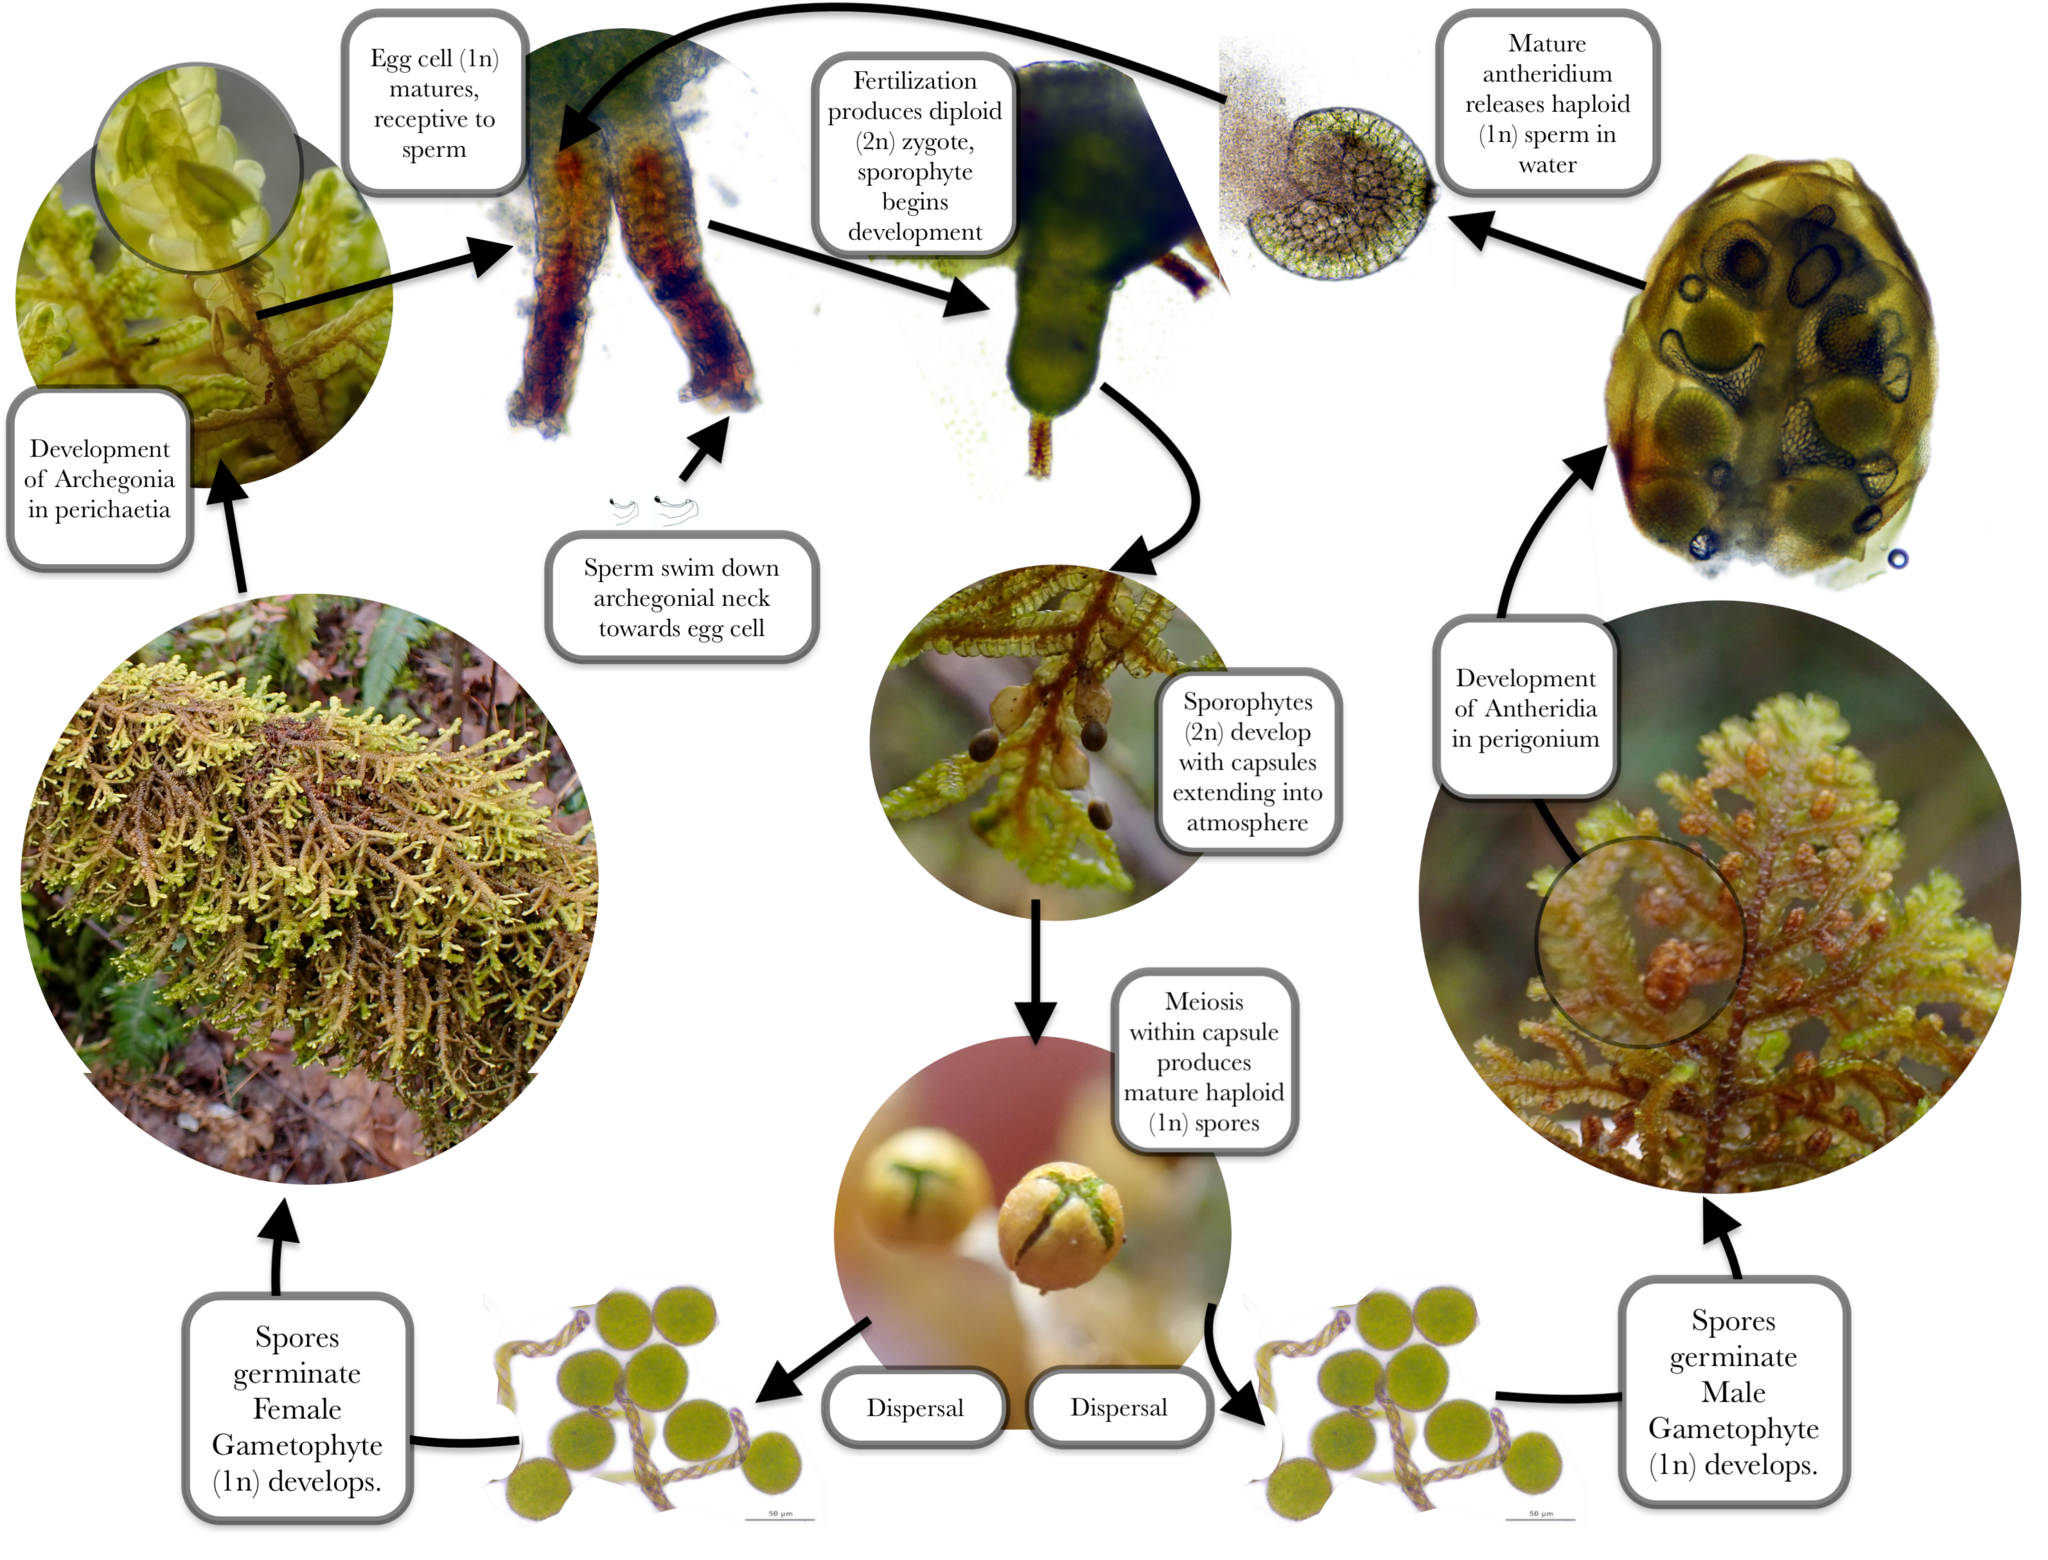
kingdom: Plantae
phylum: Marchantiophyta
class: Jungermanniopsida
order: Porellales
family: Porellaceae
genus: Porella
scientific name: Porella navicularis
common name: Tree ruffle liverwort
